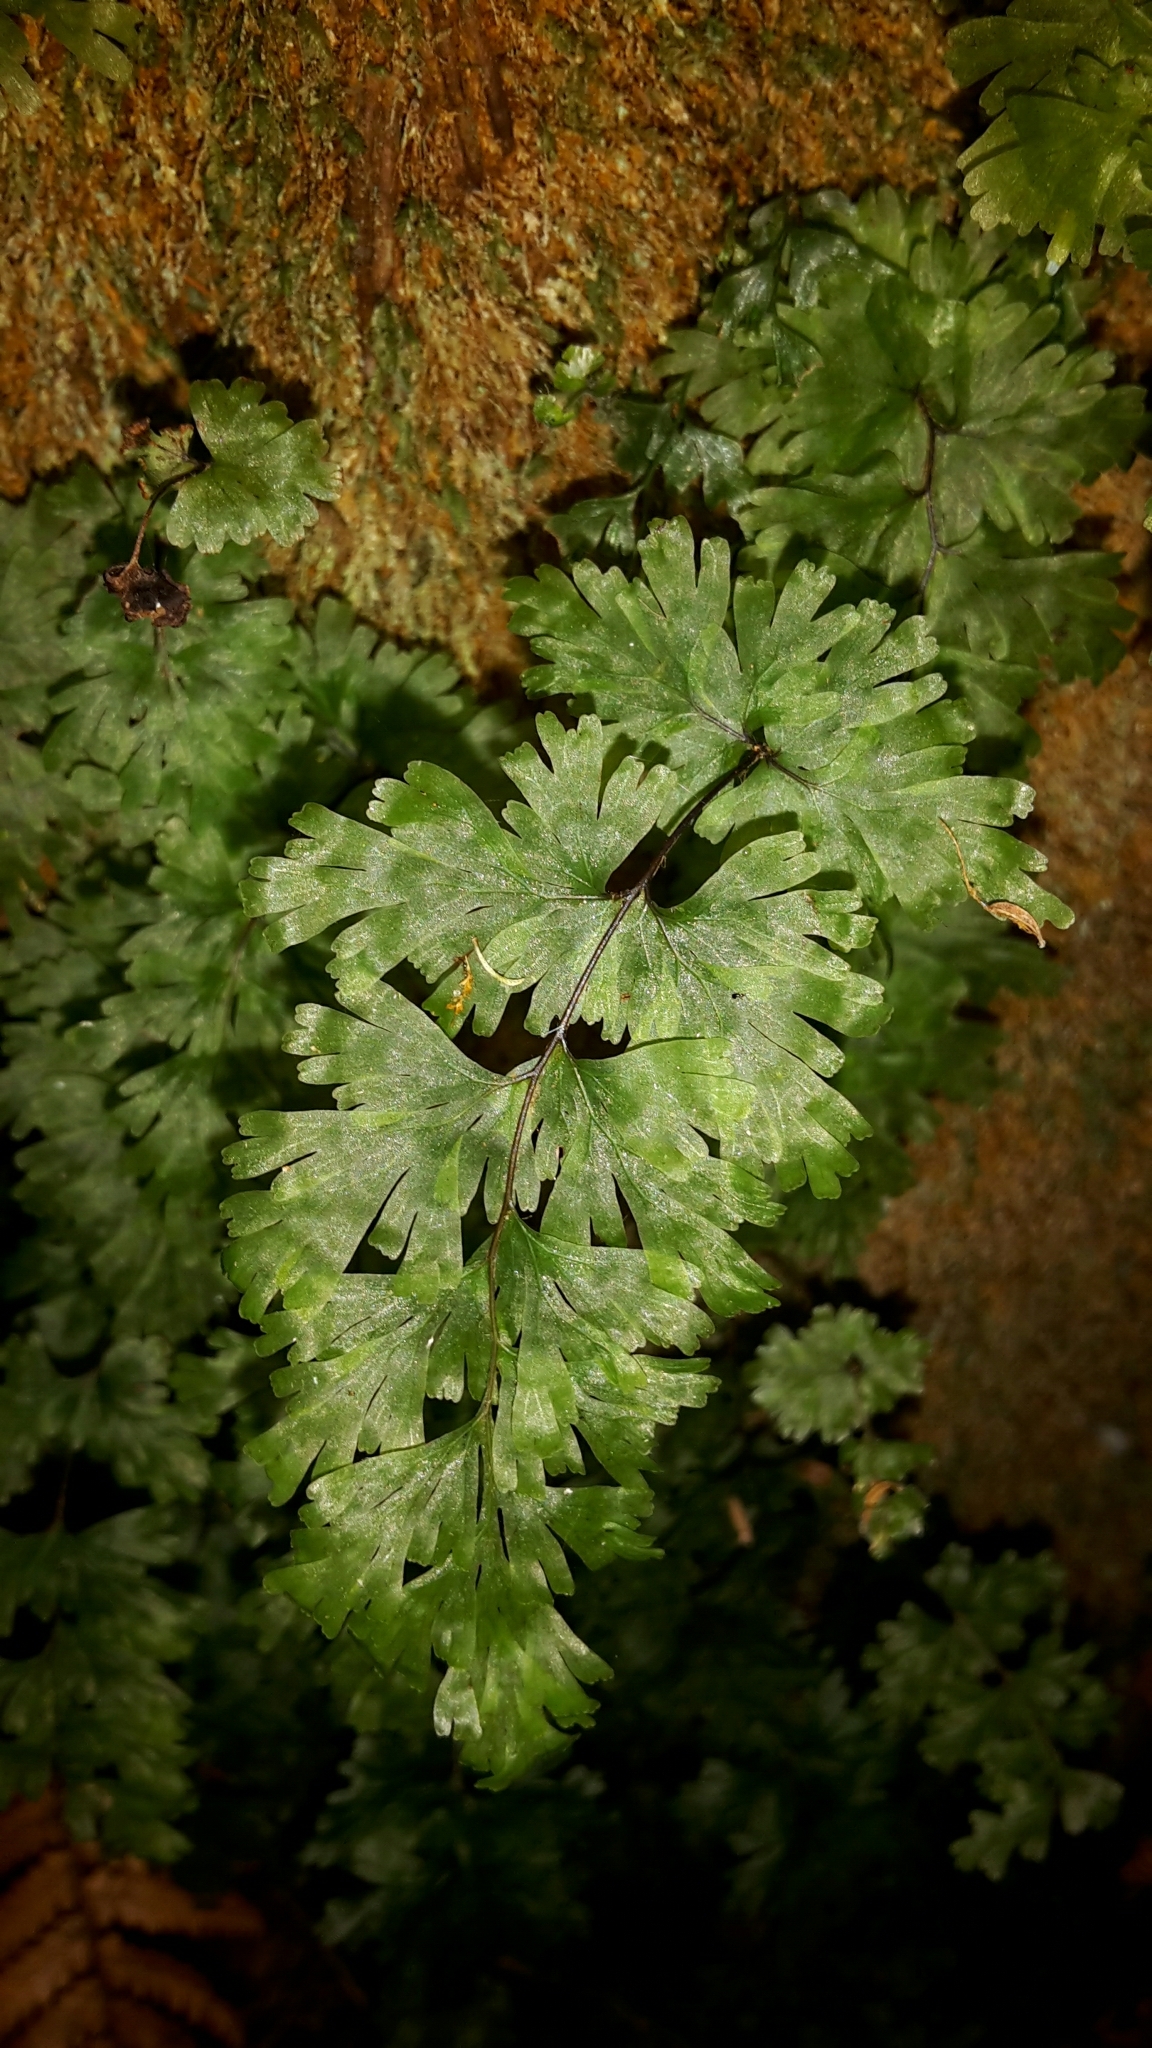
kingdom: Plantae
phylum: Tracheophyta
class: Polypodiopsida
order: Hymenophyllales
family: Hymenophyllaceae
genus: Hymenophyllum
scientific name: Hymenophyllum flabellatum
